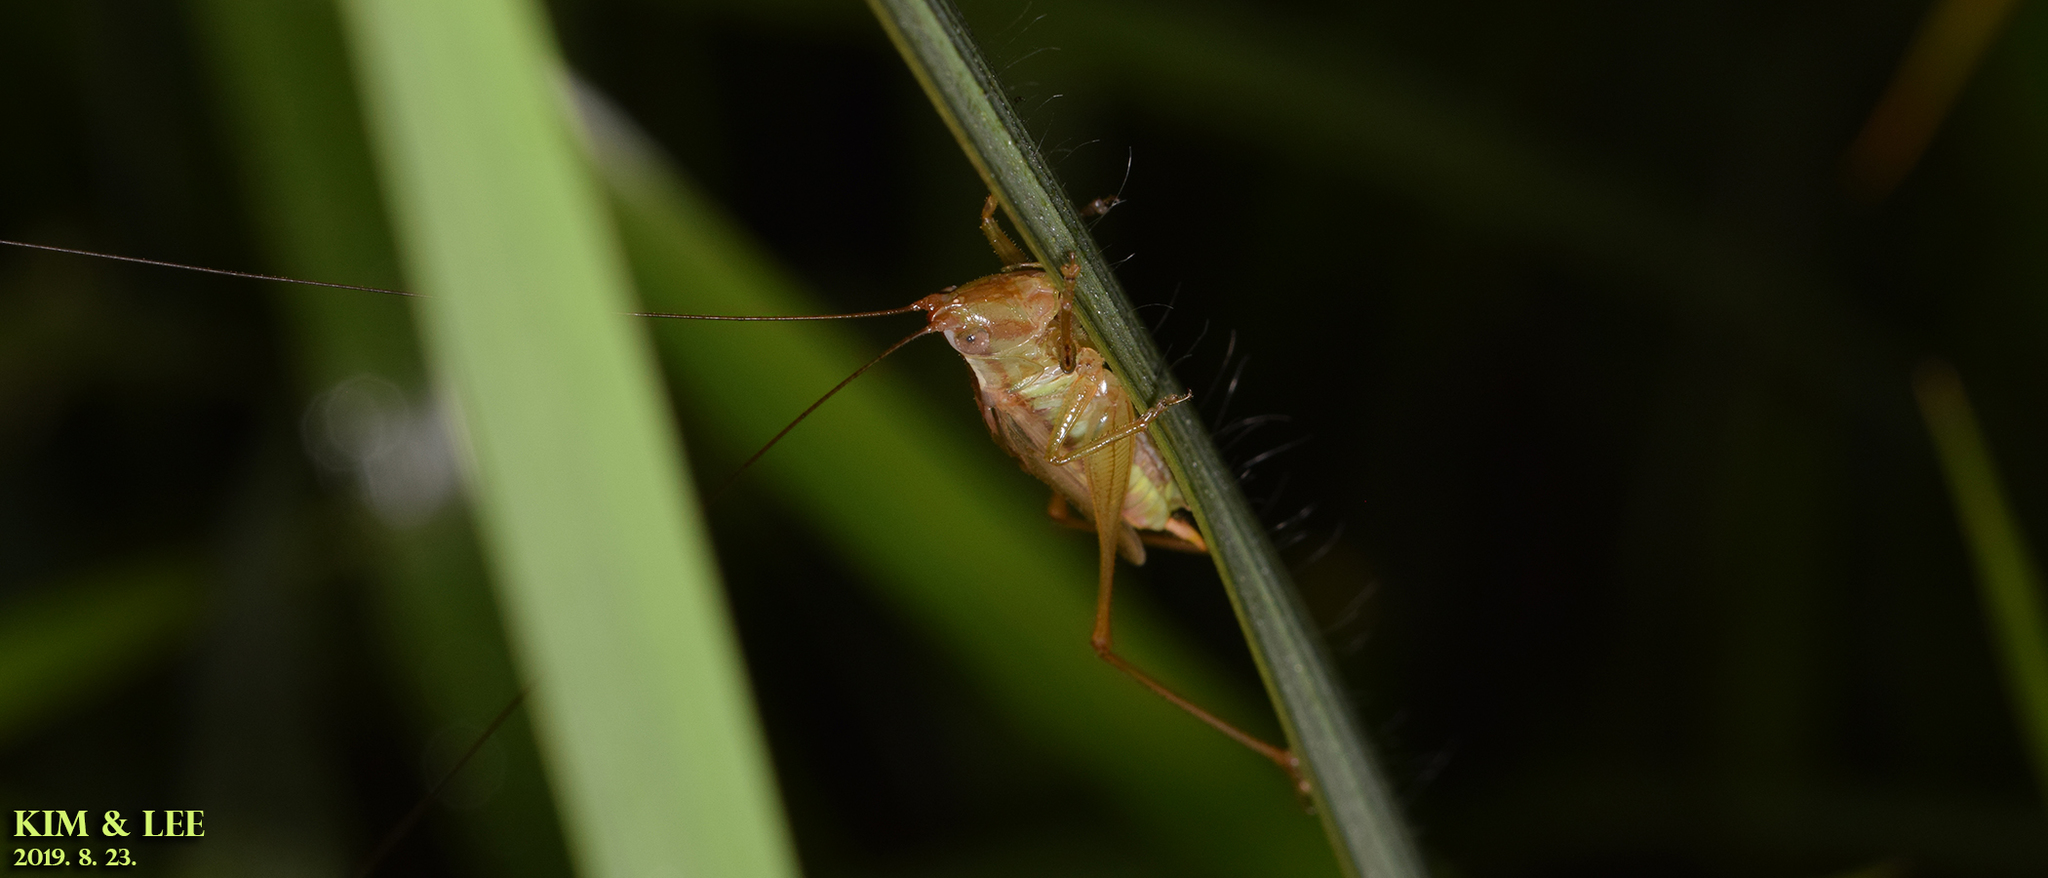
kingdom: Animalia
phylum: Arthropoda
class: Insecta
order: Orthoptera
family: Tettigoniidae
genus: Conocephalus
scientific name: Conocephalus exemptus
